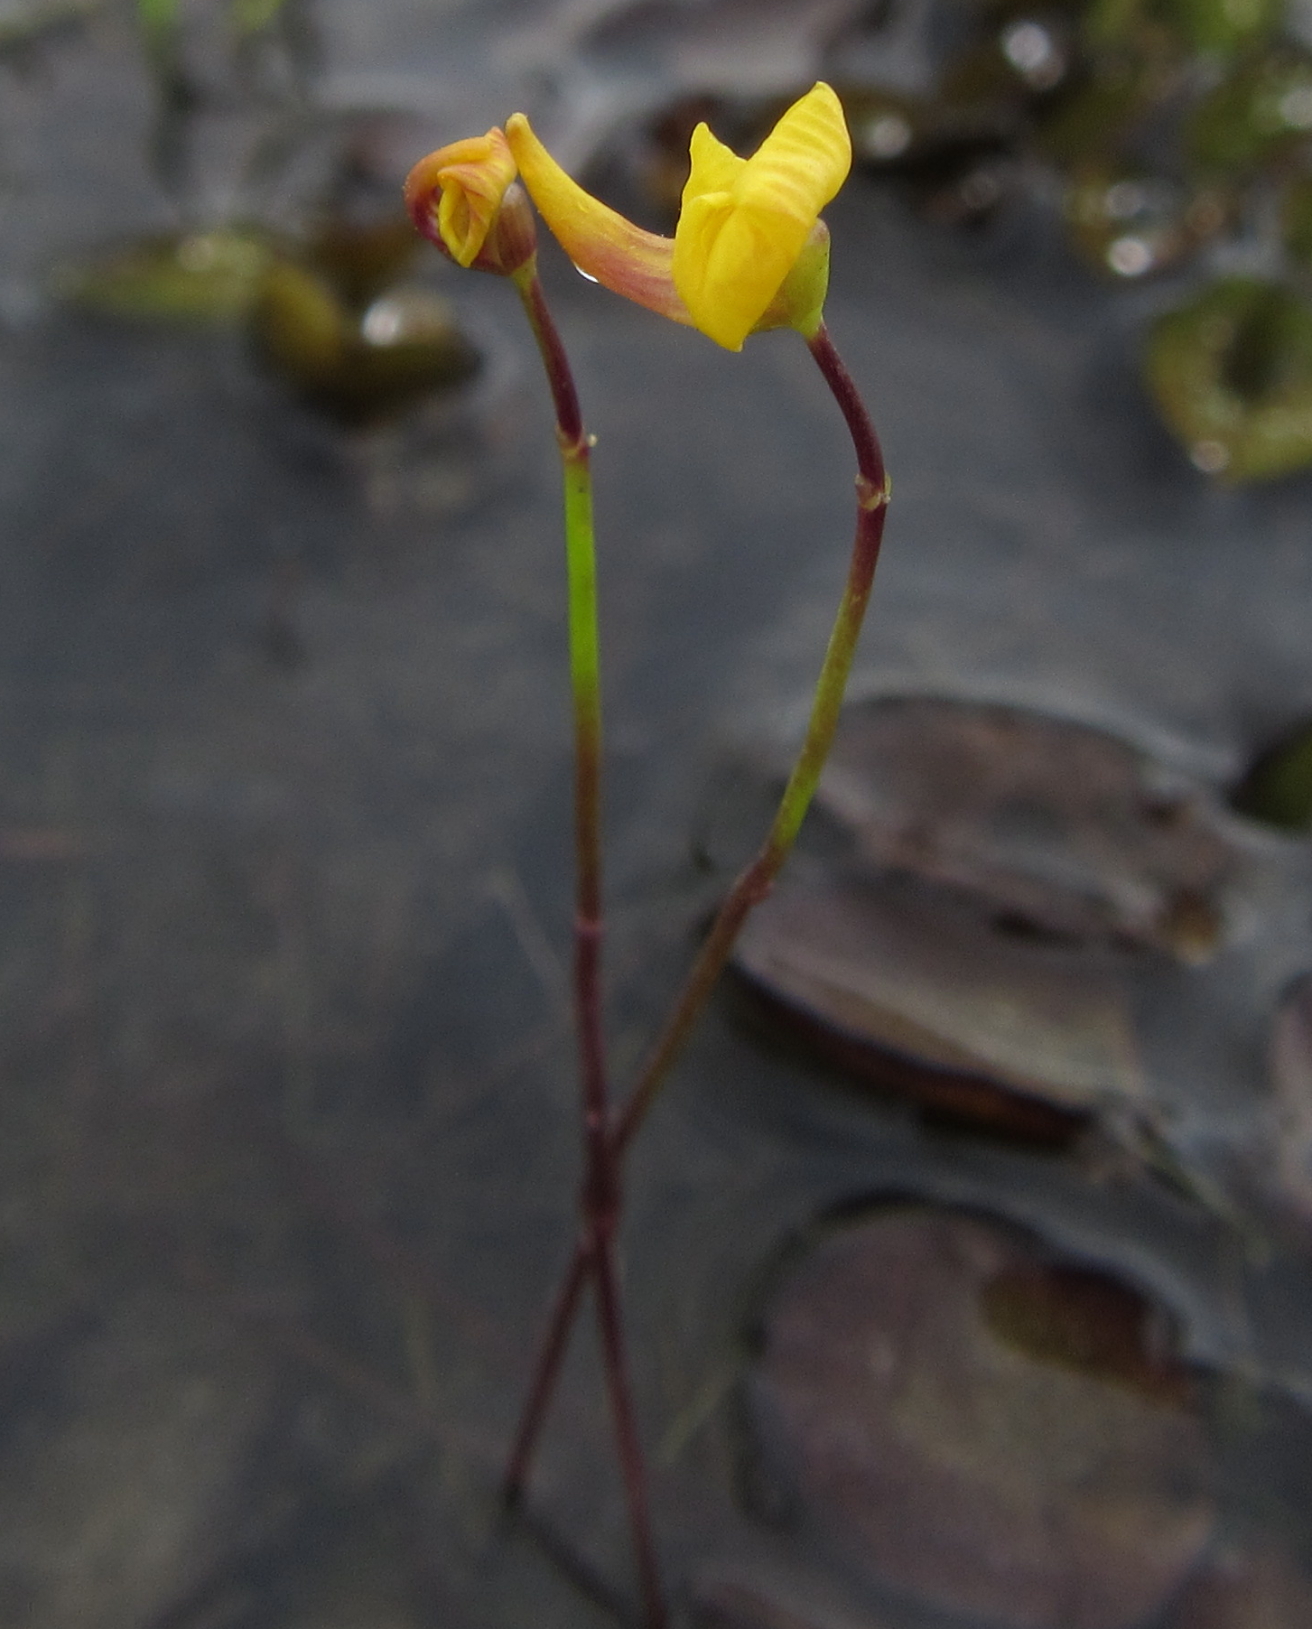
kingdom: Plantae
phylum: Tracheophyta
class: Magnoliopsida
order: Lamiales
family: Lentibulariaceae
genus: Utricularia
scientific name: Utricularia gibba
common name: Humped bladderwort
